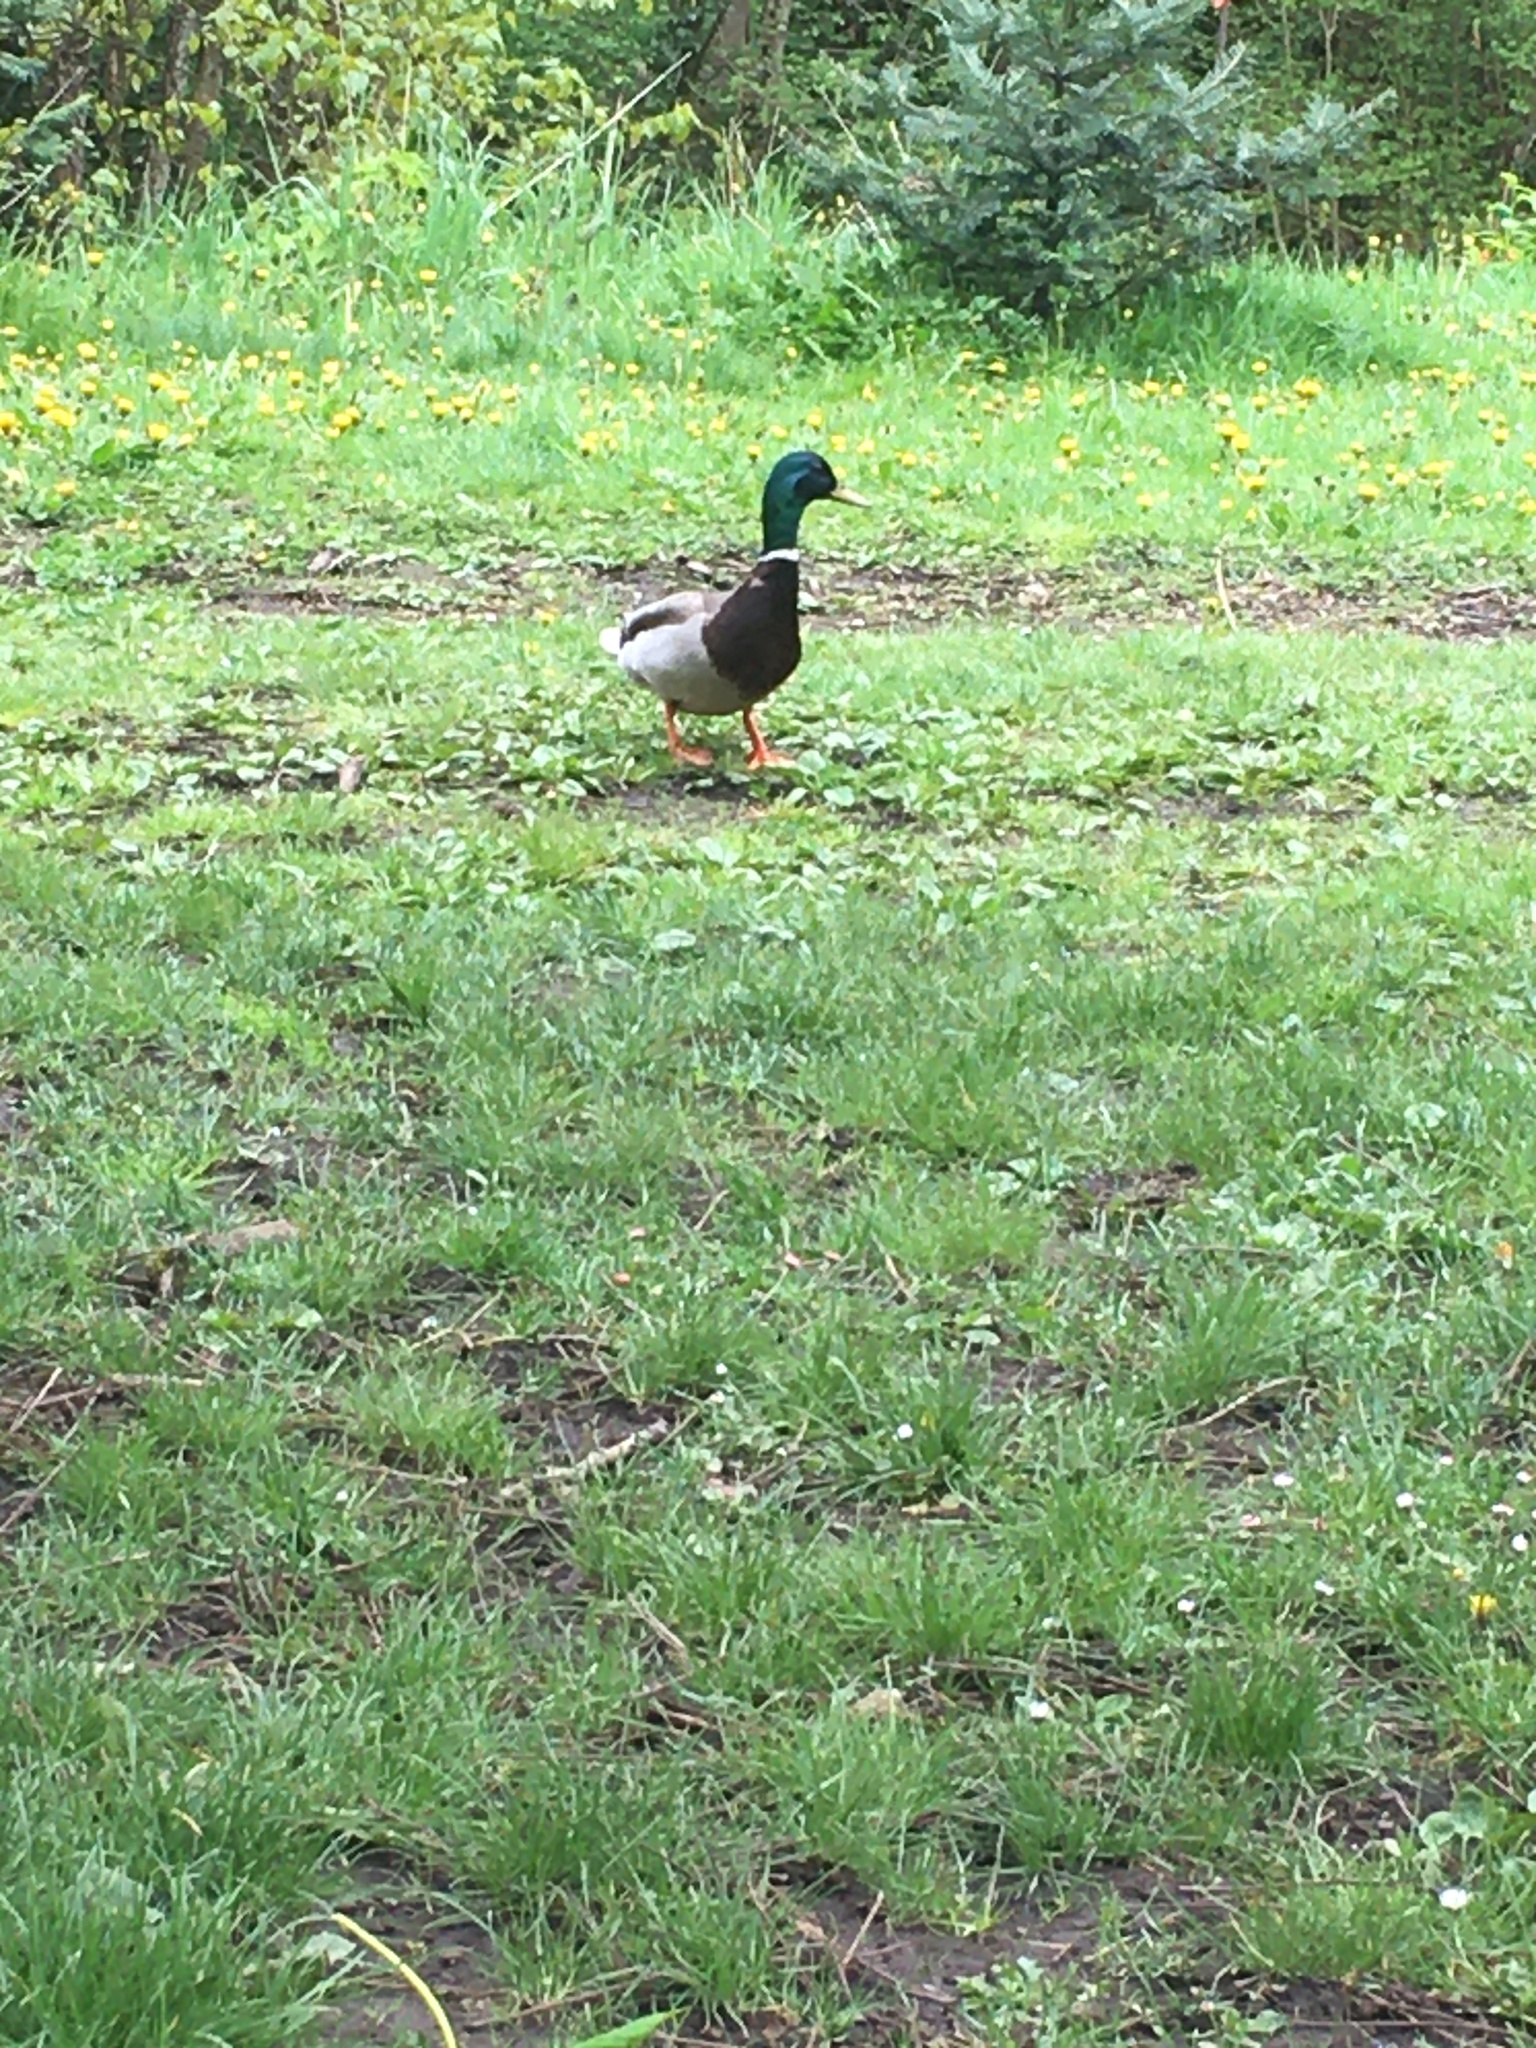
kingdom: Animalia
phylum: Chordata
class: Aves
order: Anseriformes
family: Anatidae
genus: Anas
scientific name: Anas platyrhynchos
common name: Mallard
